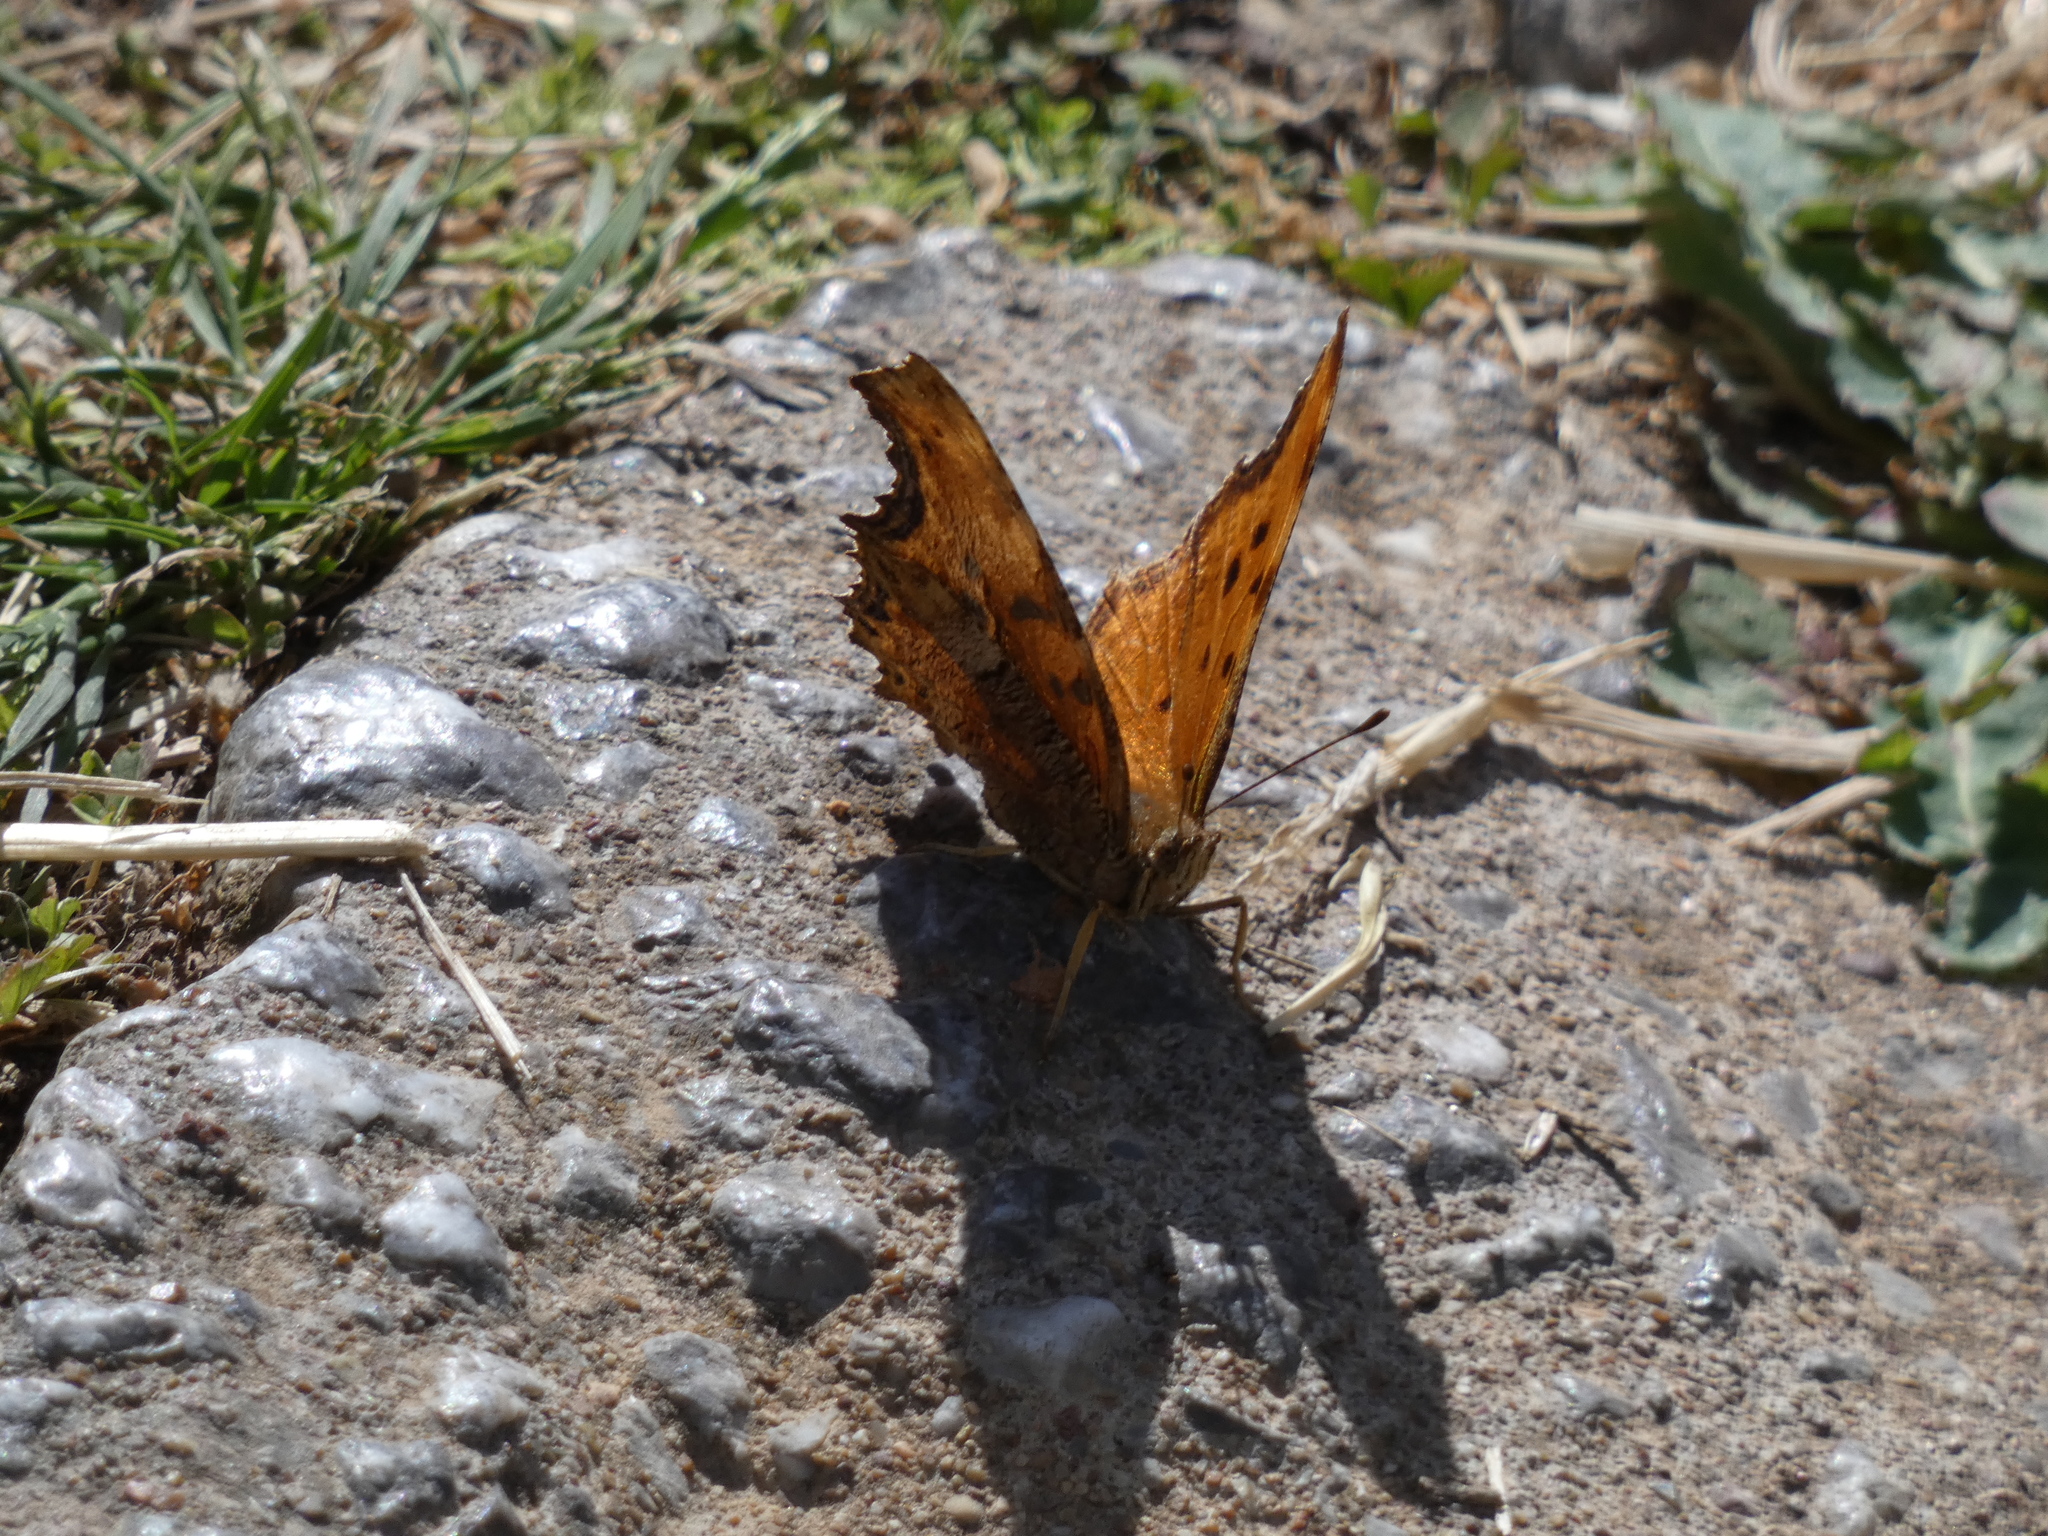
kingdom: Animalia
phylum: Arthropoda
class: Insecta
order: Lepidoptera
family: Nymphalidae
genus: Polygonia
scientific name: Polygonia egea
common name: Southern comma
